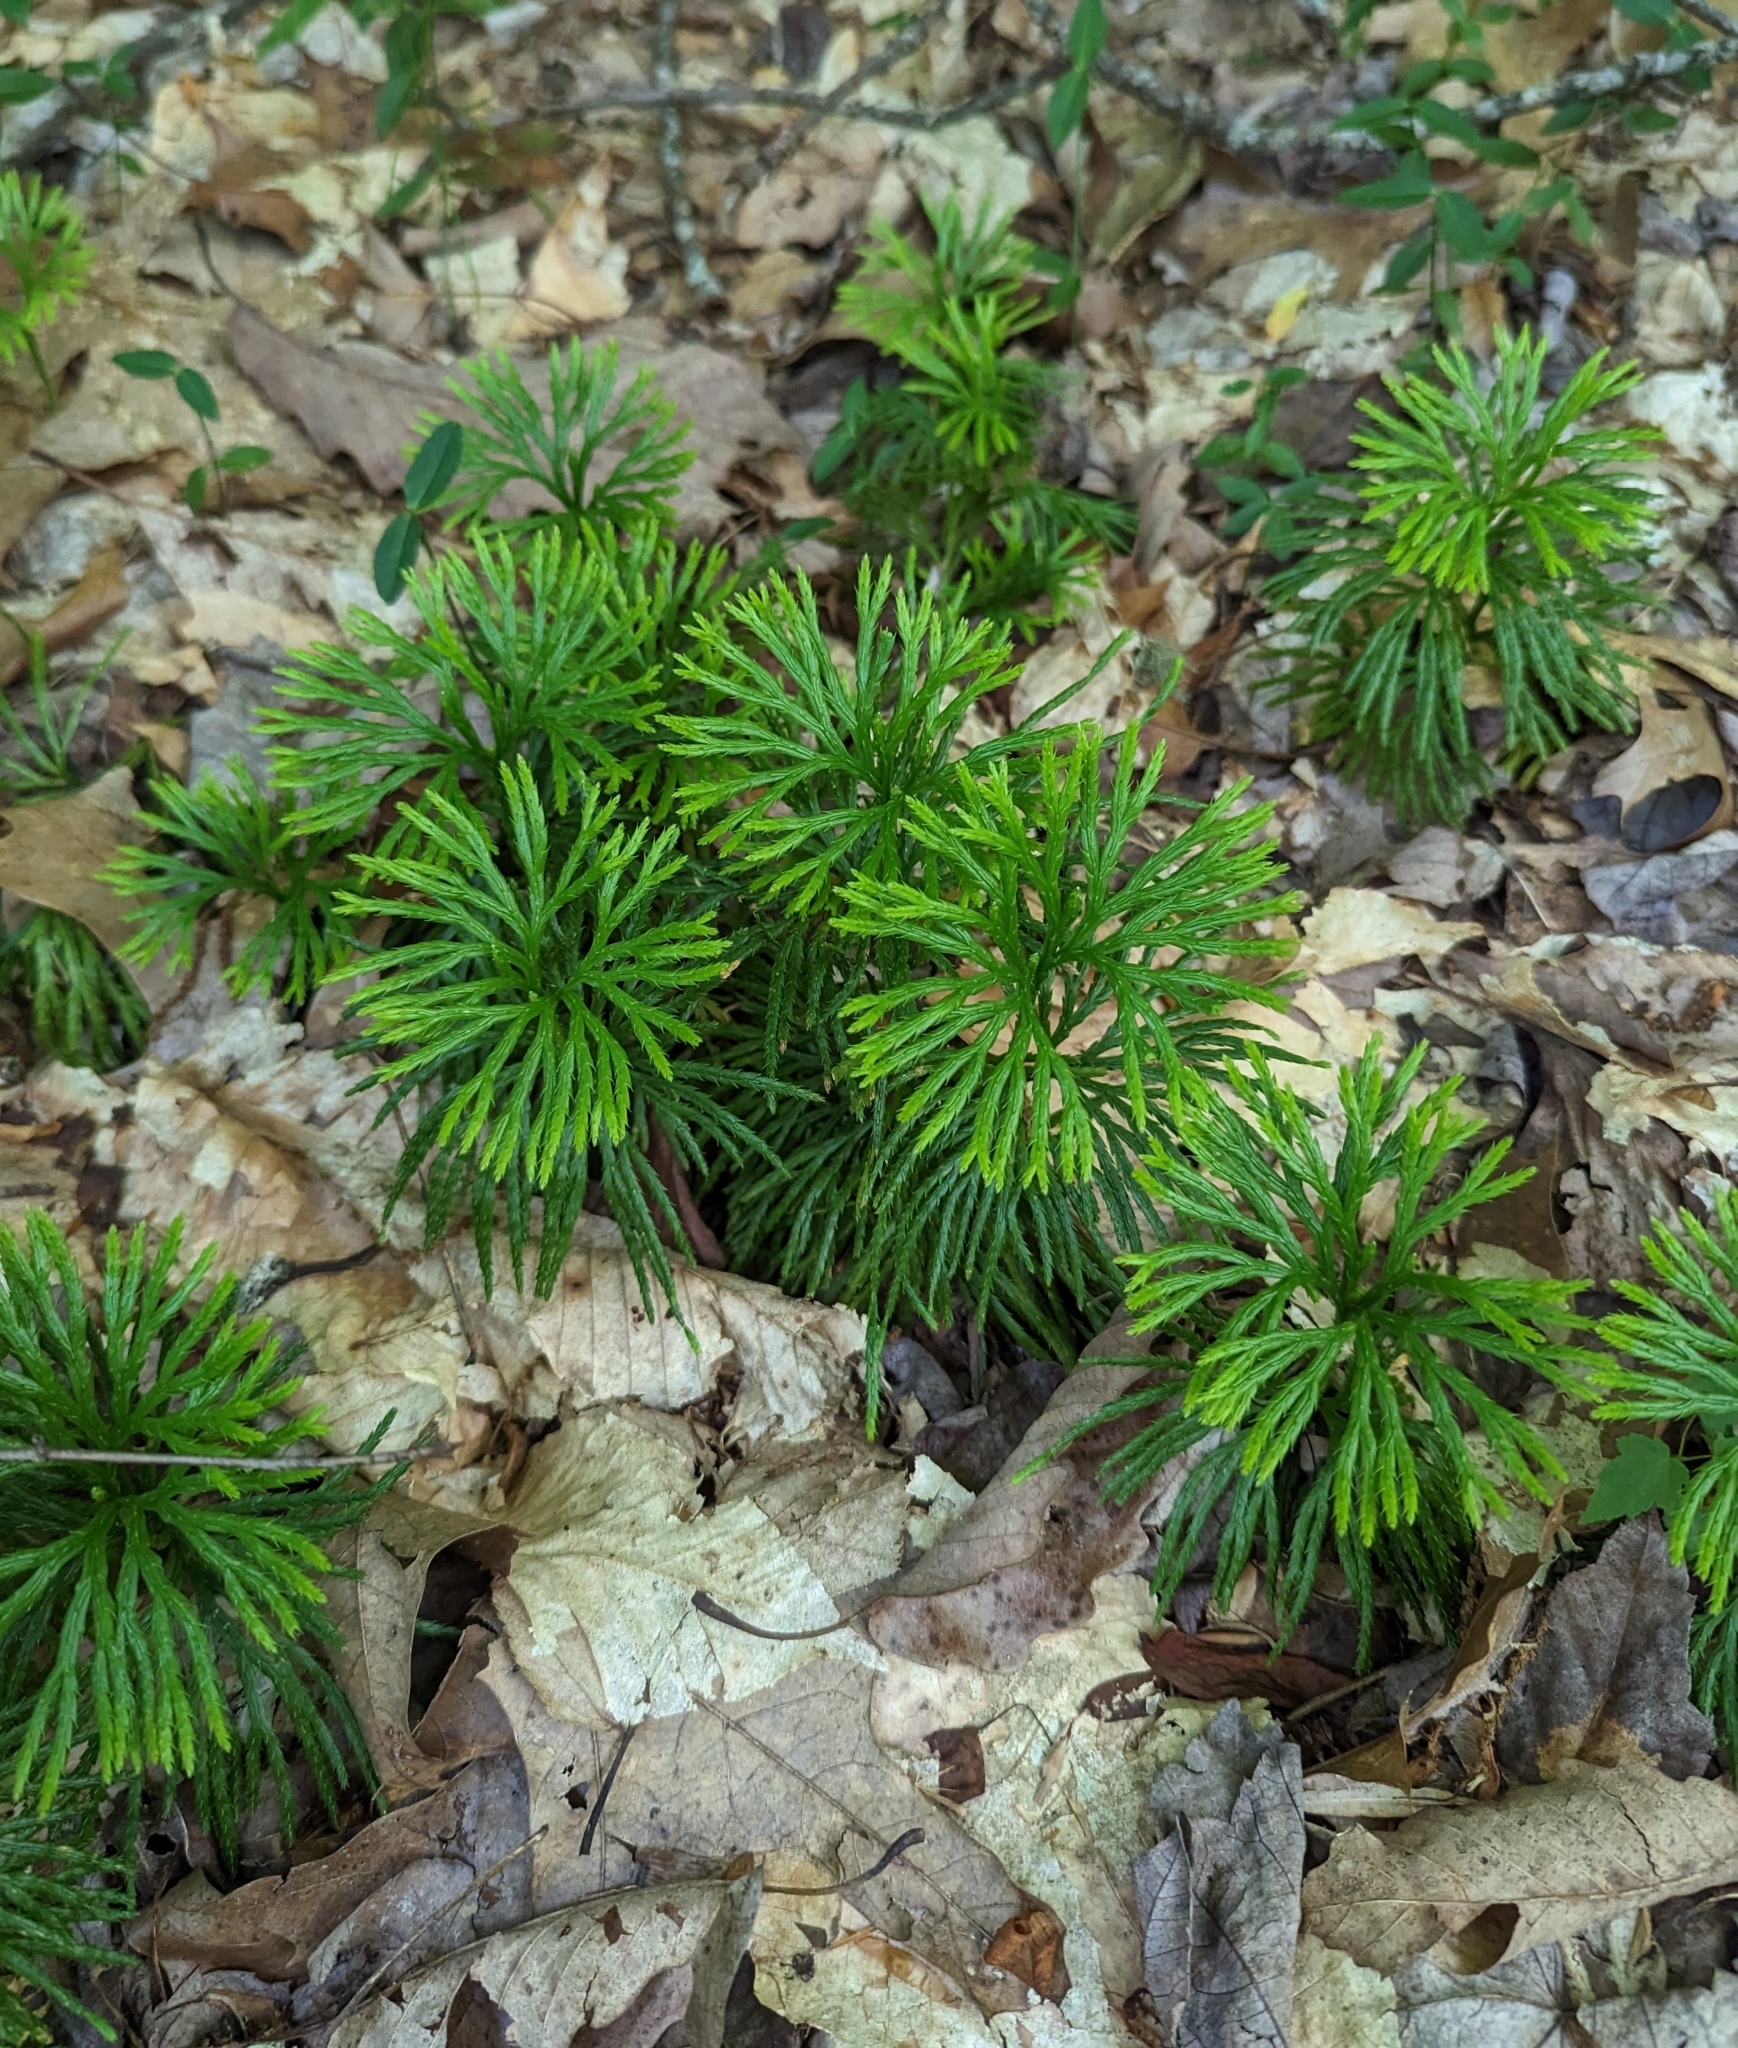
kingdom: Plantae
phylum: Tracheophyta
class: Lycopodiopsida
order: Lycopodiales
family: Lycopodiaceae
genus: Diphasiastrum
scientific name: Diphasiastrum digitatum
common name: Southern running-pine
